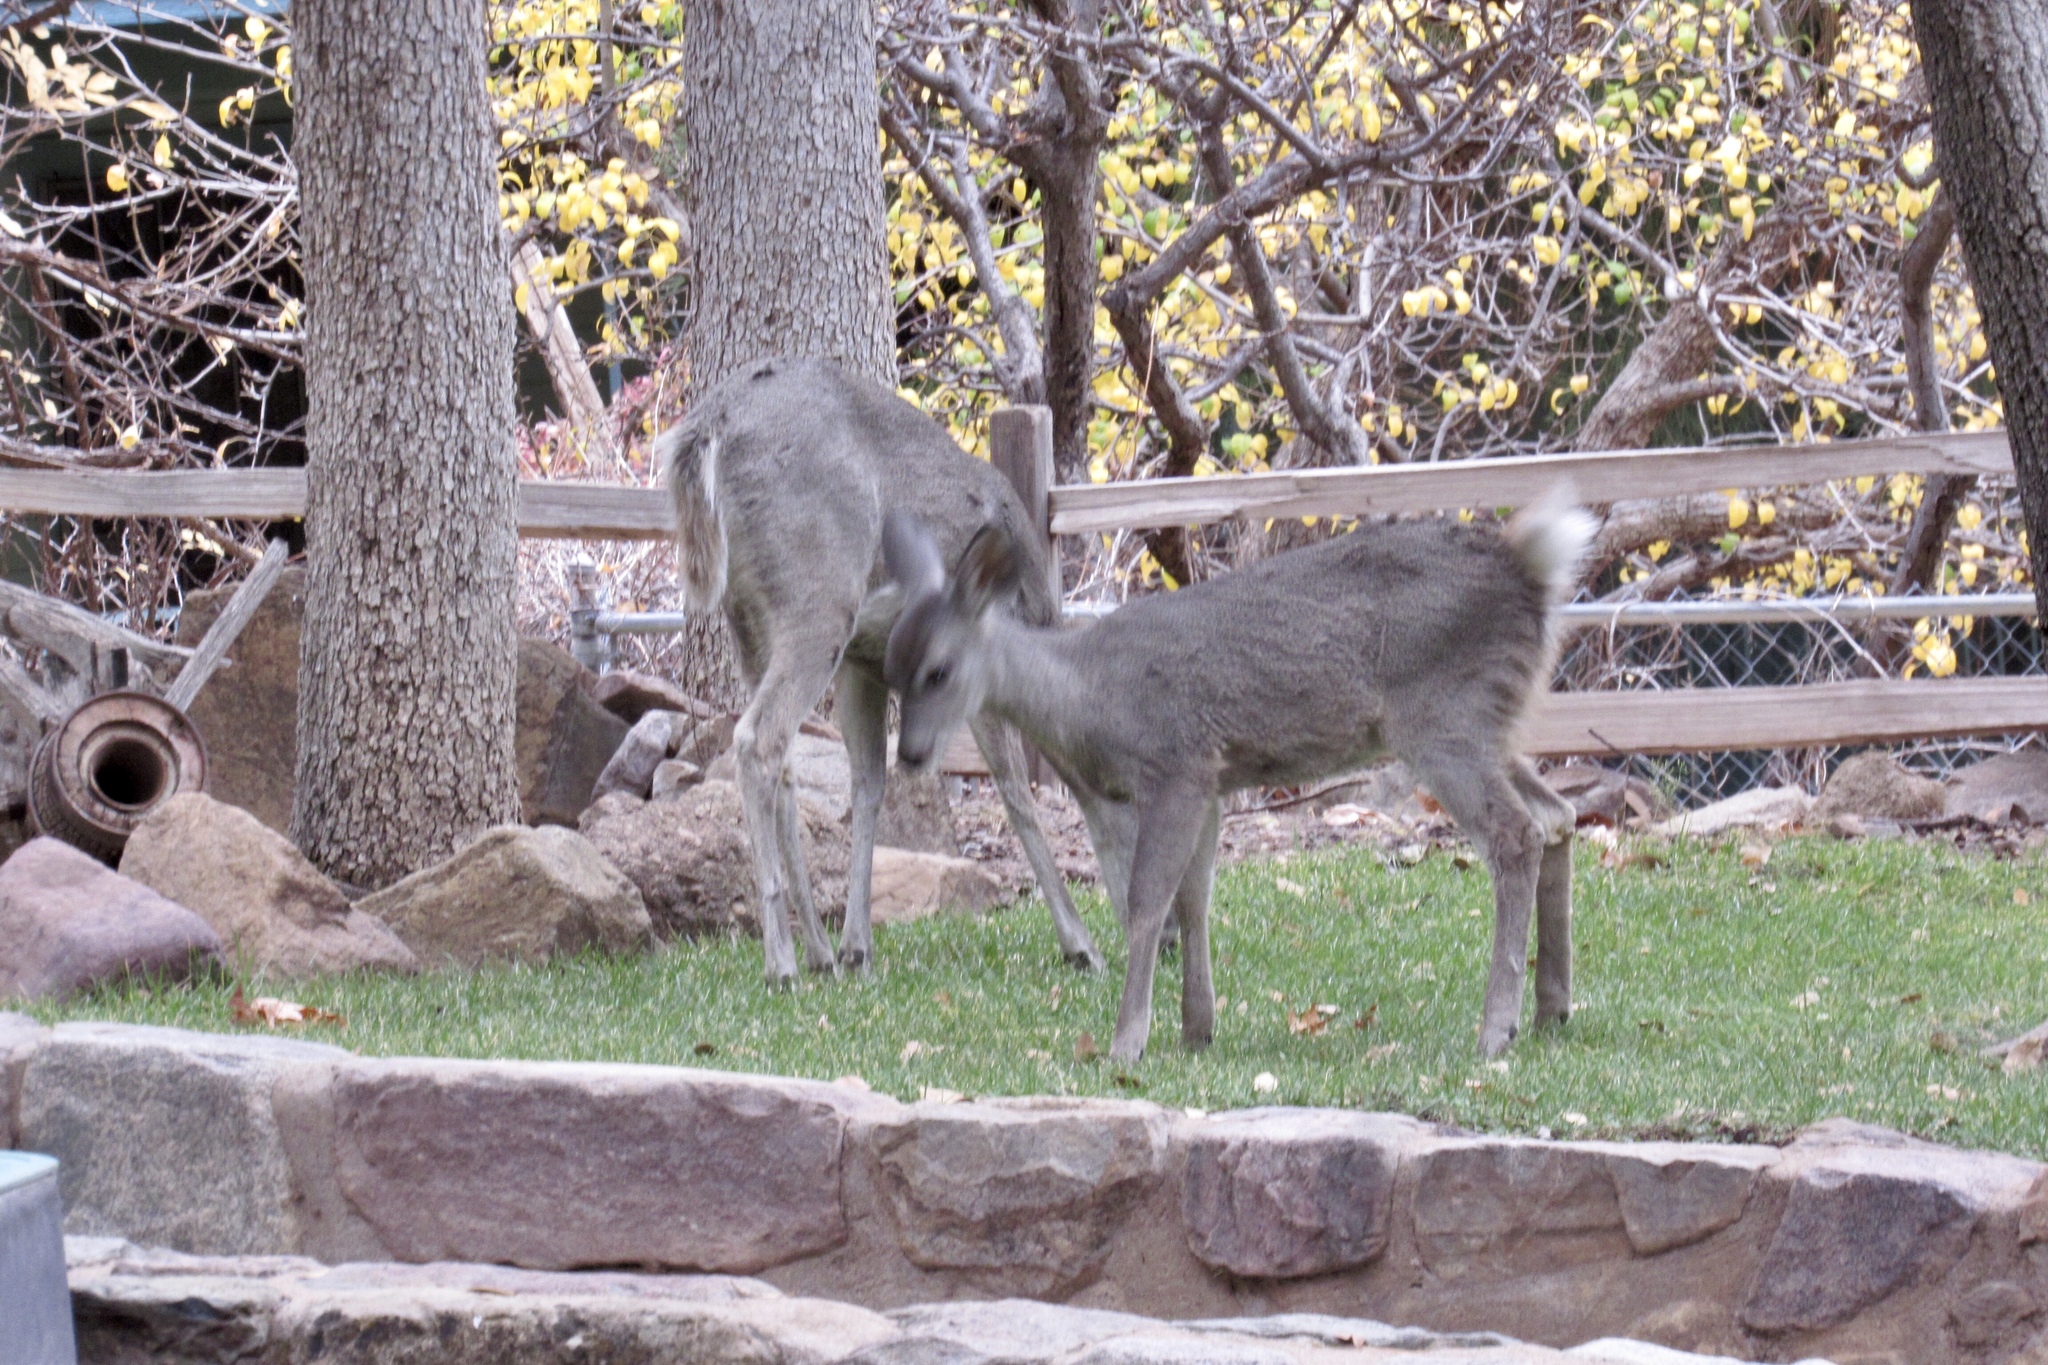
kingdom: Animalia
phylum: Chordata
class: Mammalia
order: Artiodactyla
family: Cervidae
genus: Odocoileus
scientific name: Odocoileus virginianus
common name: White-tailed deer
